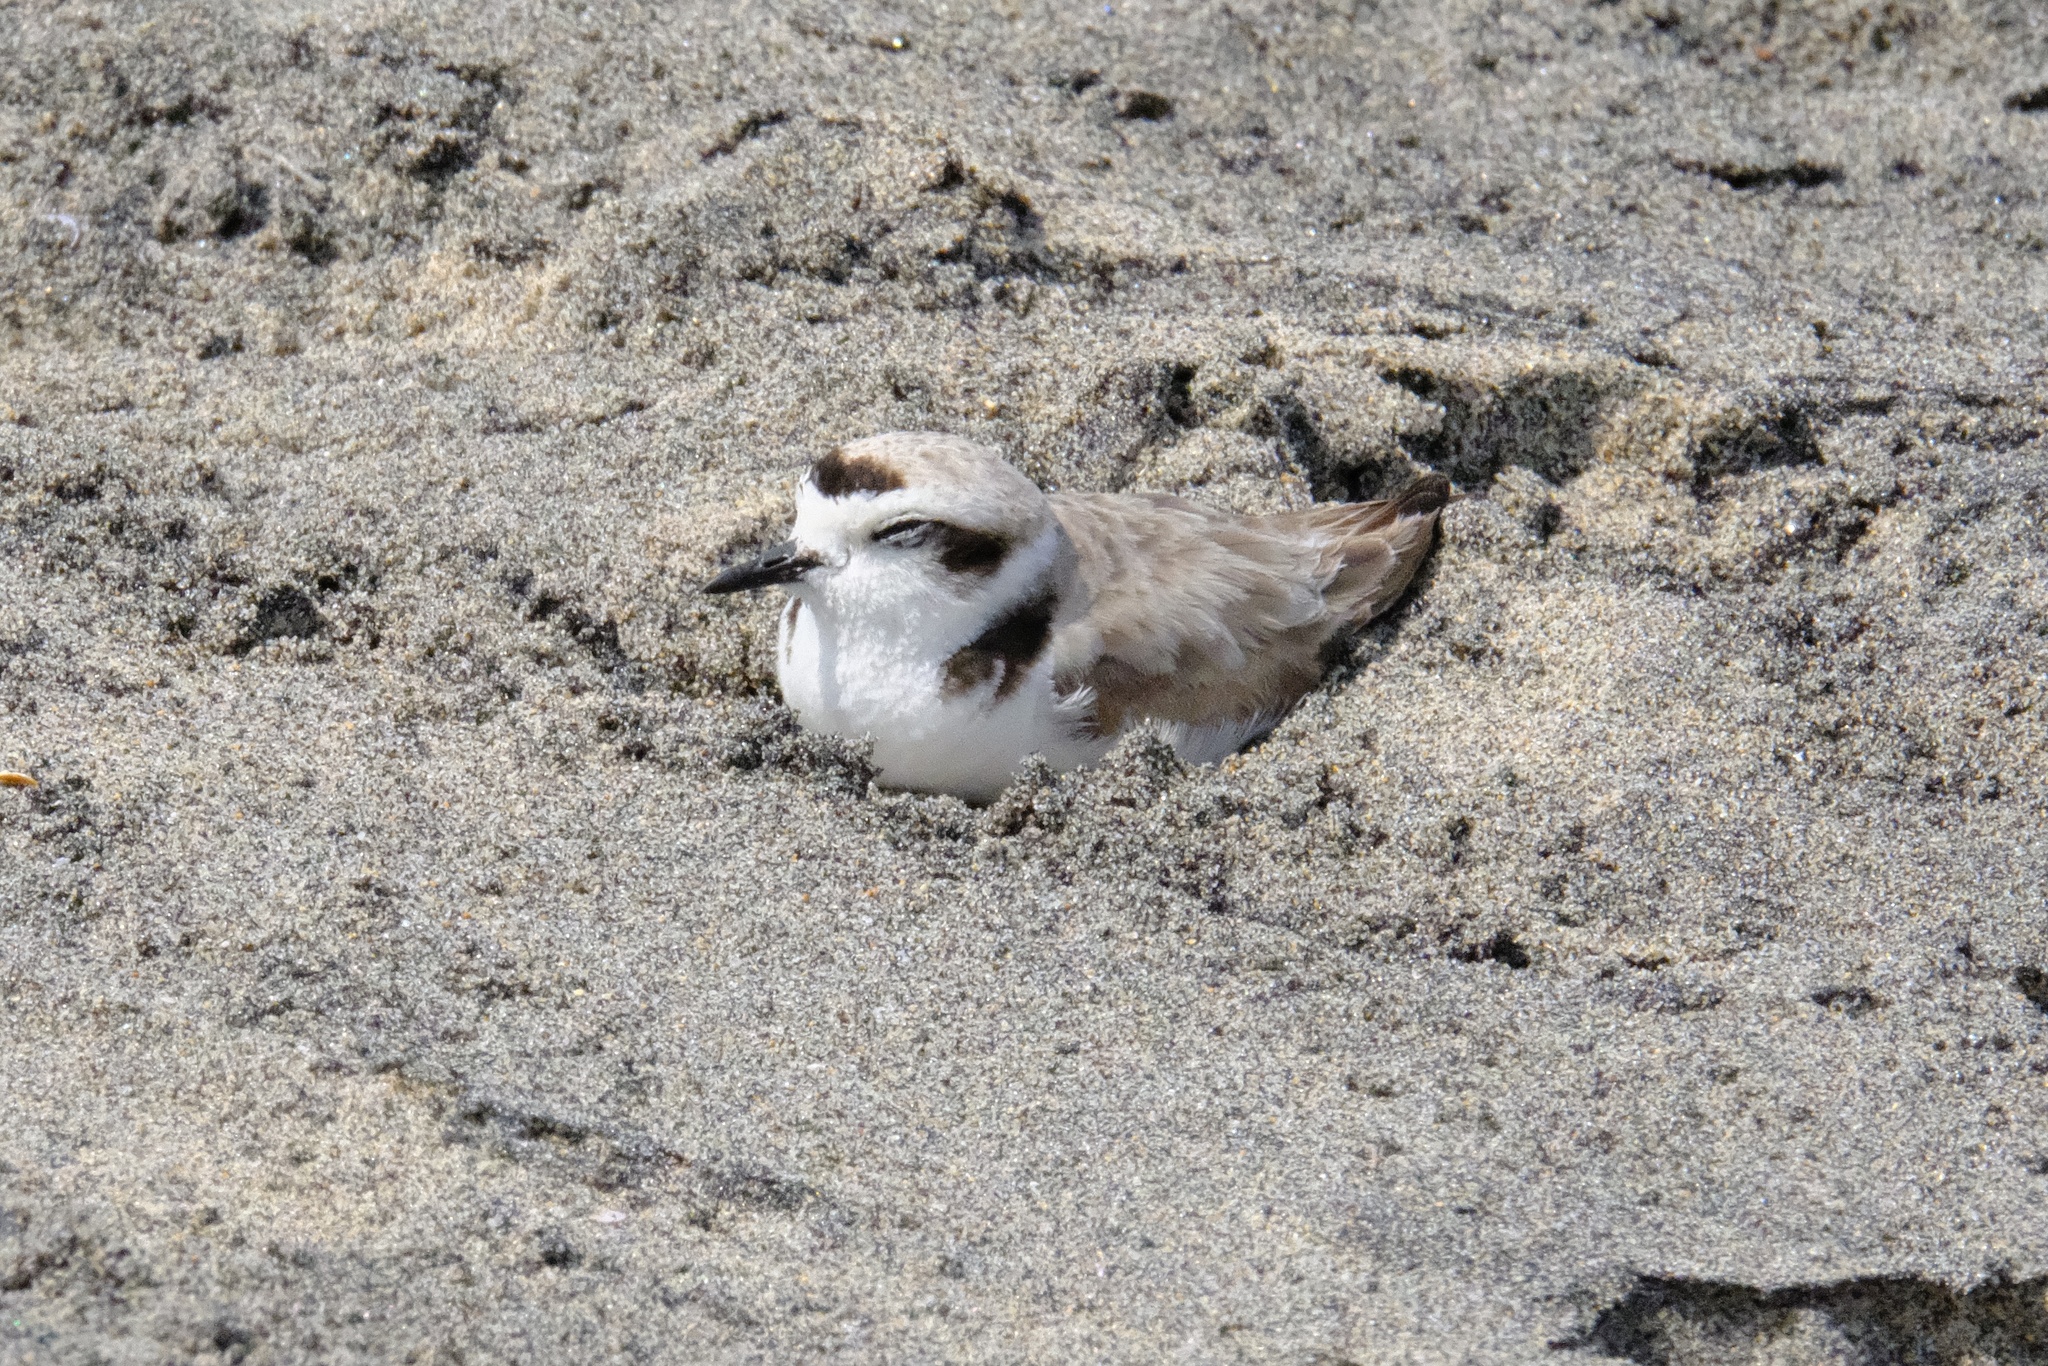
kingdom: Animalia
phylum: Chordata
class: Aves
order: Charadriiformes
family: Charadriidae
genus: Anarhynchus
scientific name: Anarhynchus
